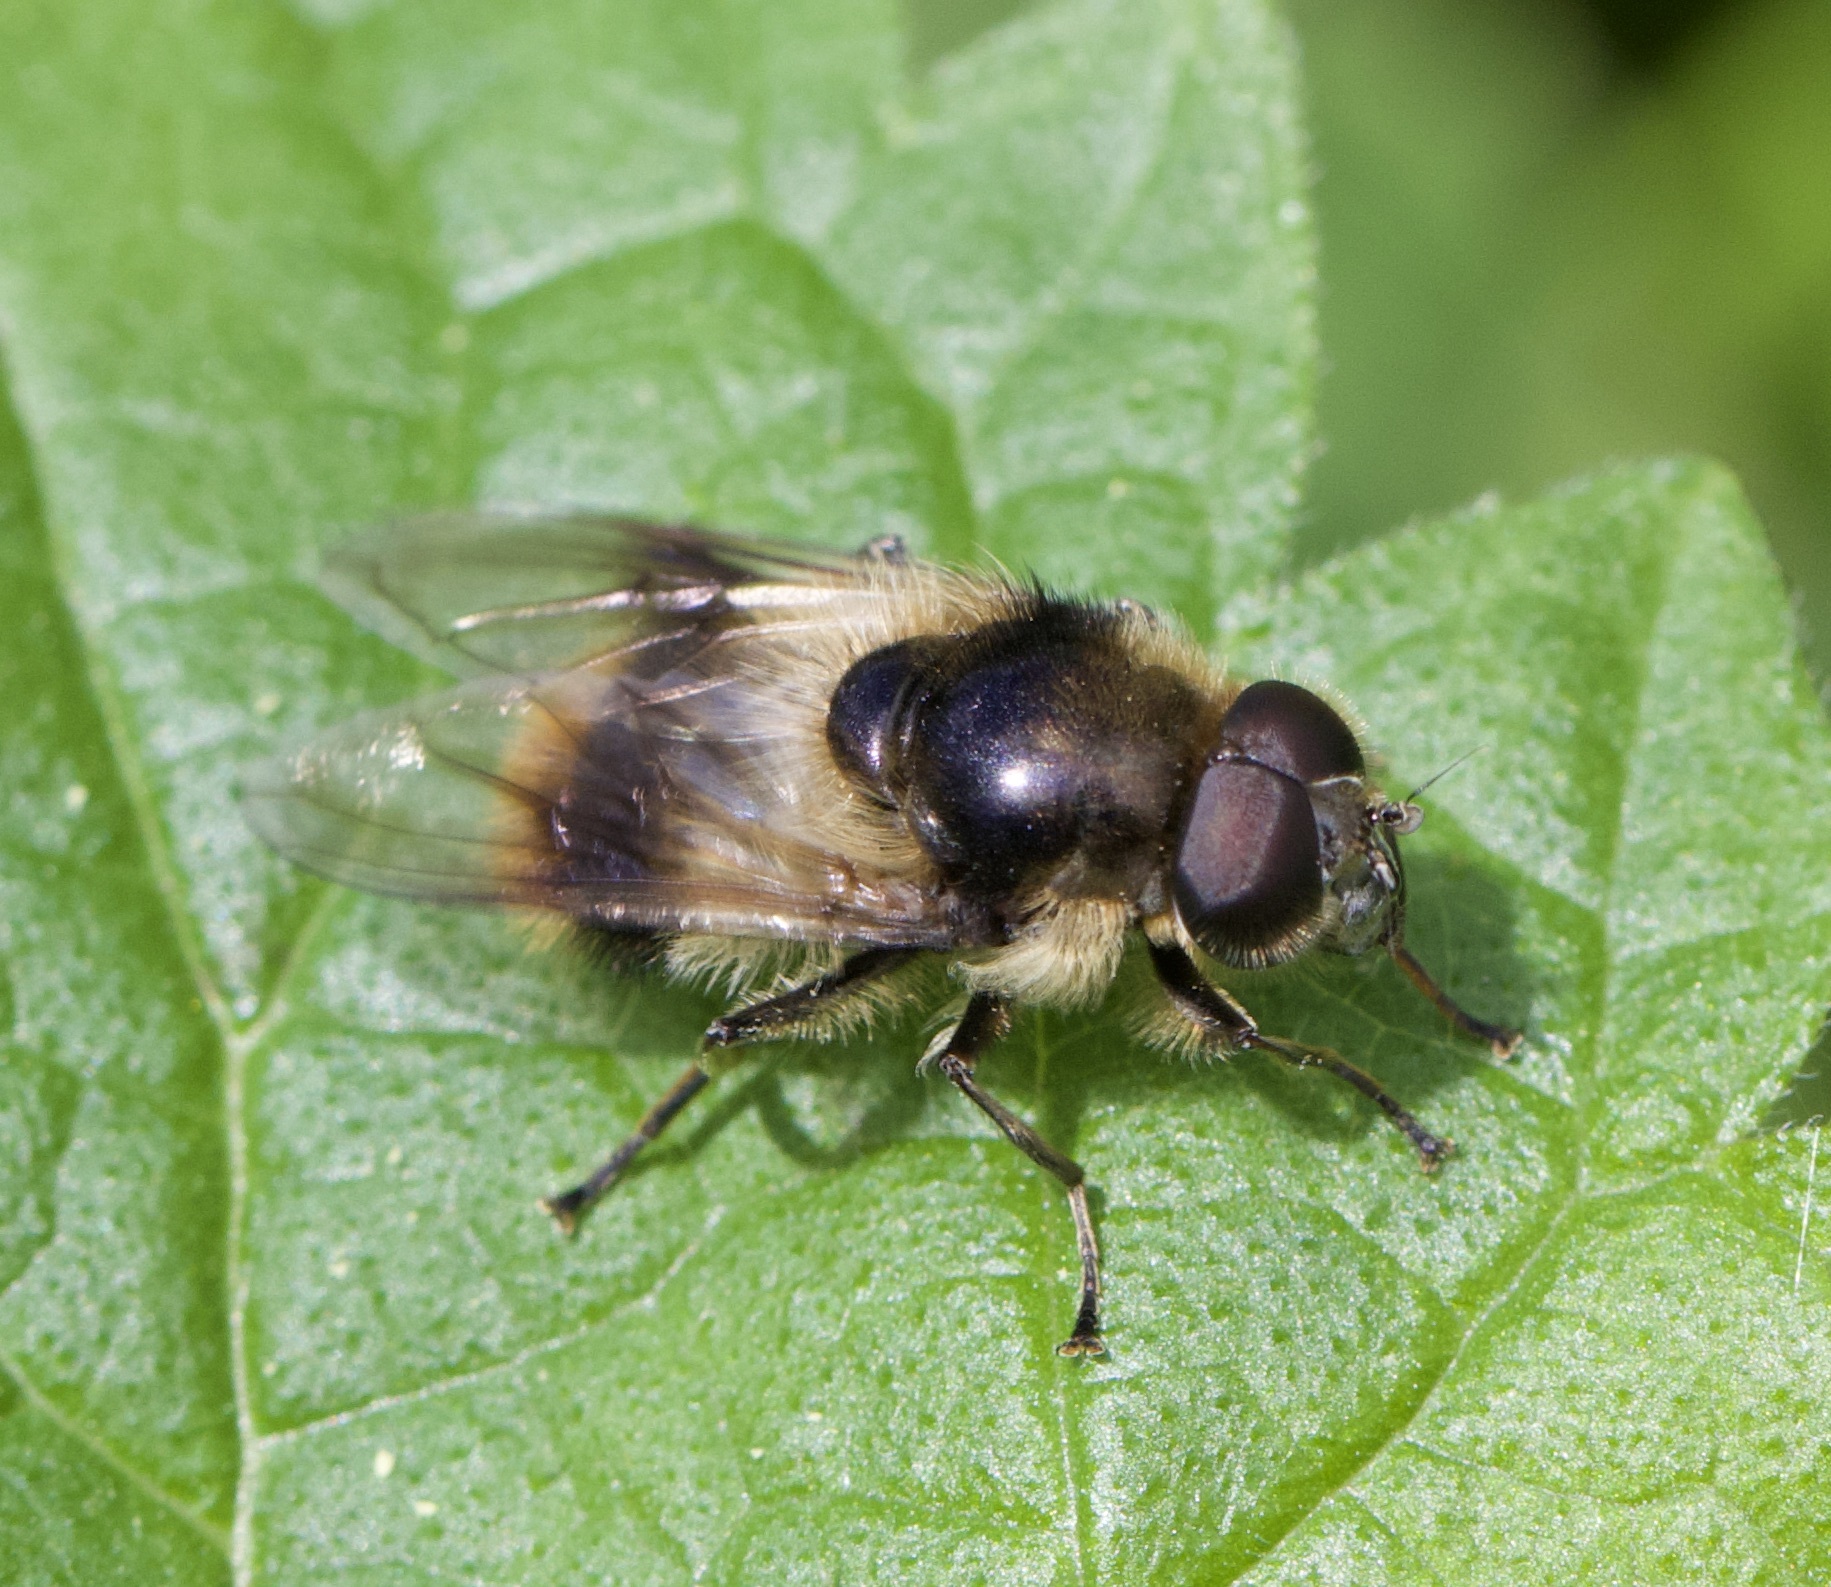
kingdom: Animalia
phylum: Arthropoda
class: Insecta
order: Diptera
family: Syrphidae
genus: Cheilosia
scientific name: Cheilosia illustrata
